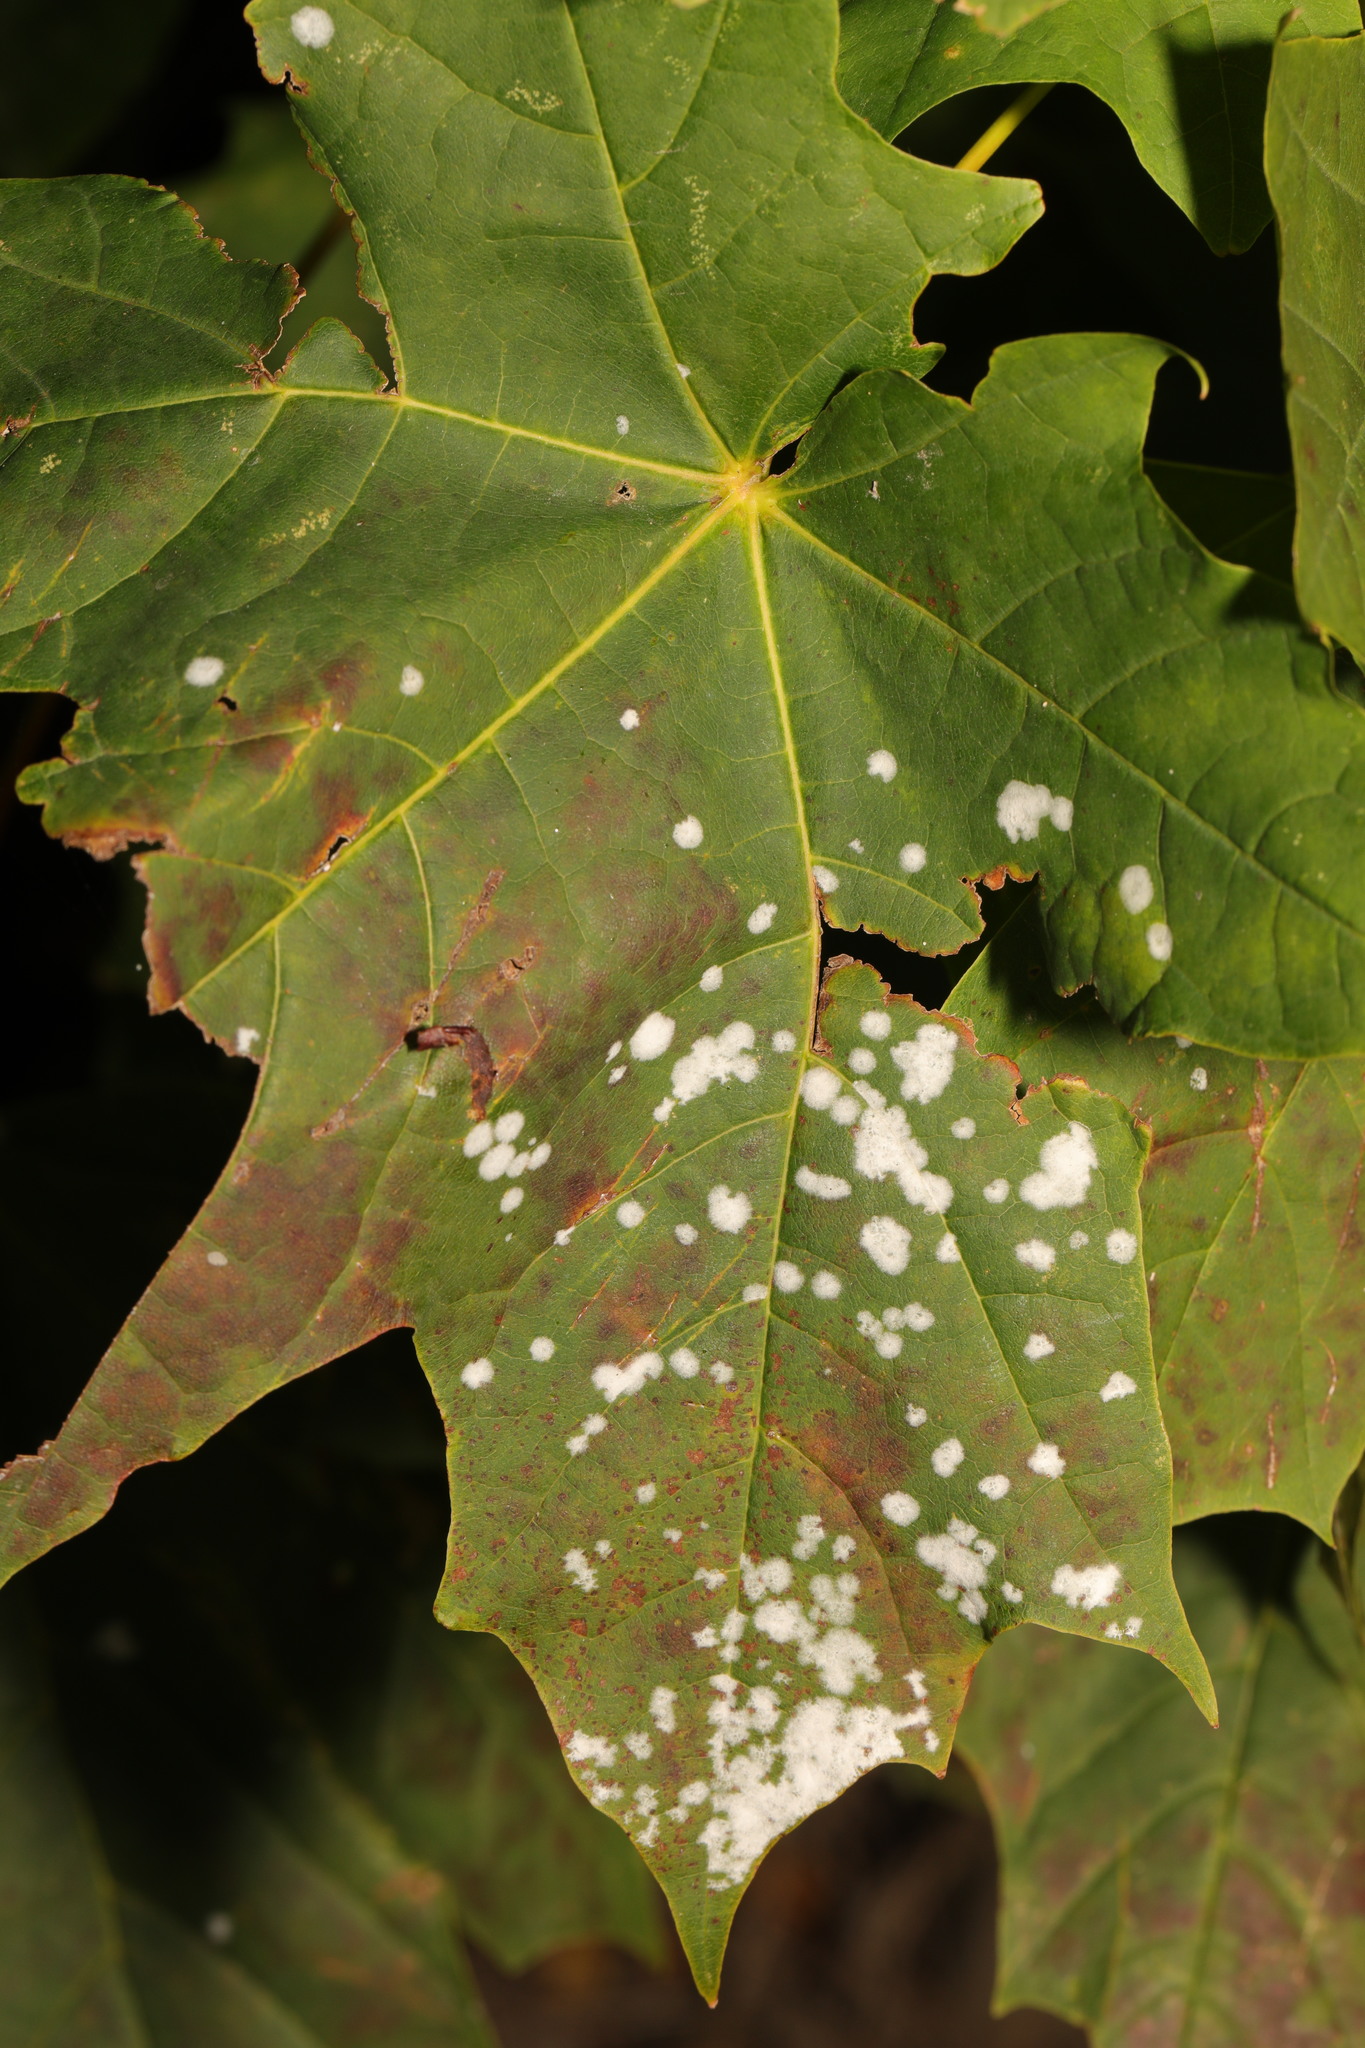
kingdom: Fungi
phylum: Ascomycota
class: Leotiomycetes
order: Helotiales
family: Erysiphaceae
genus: Sawadaea
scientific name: Sawadaea tulasnei
